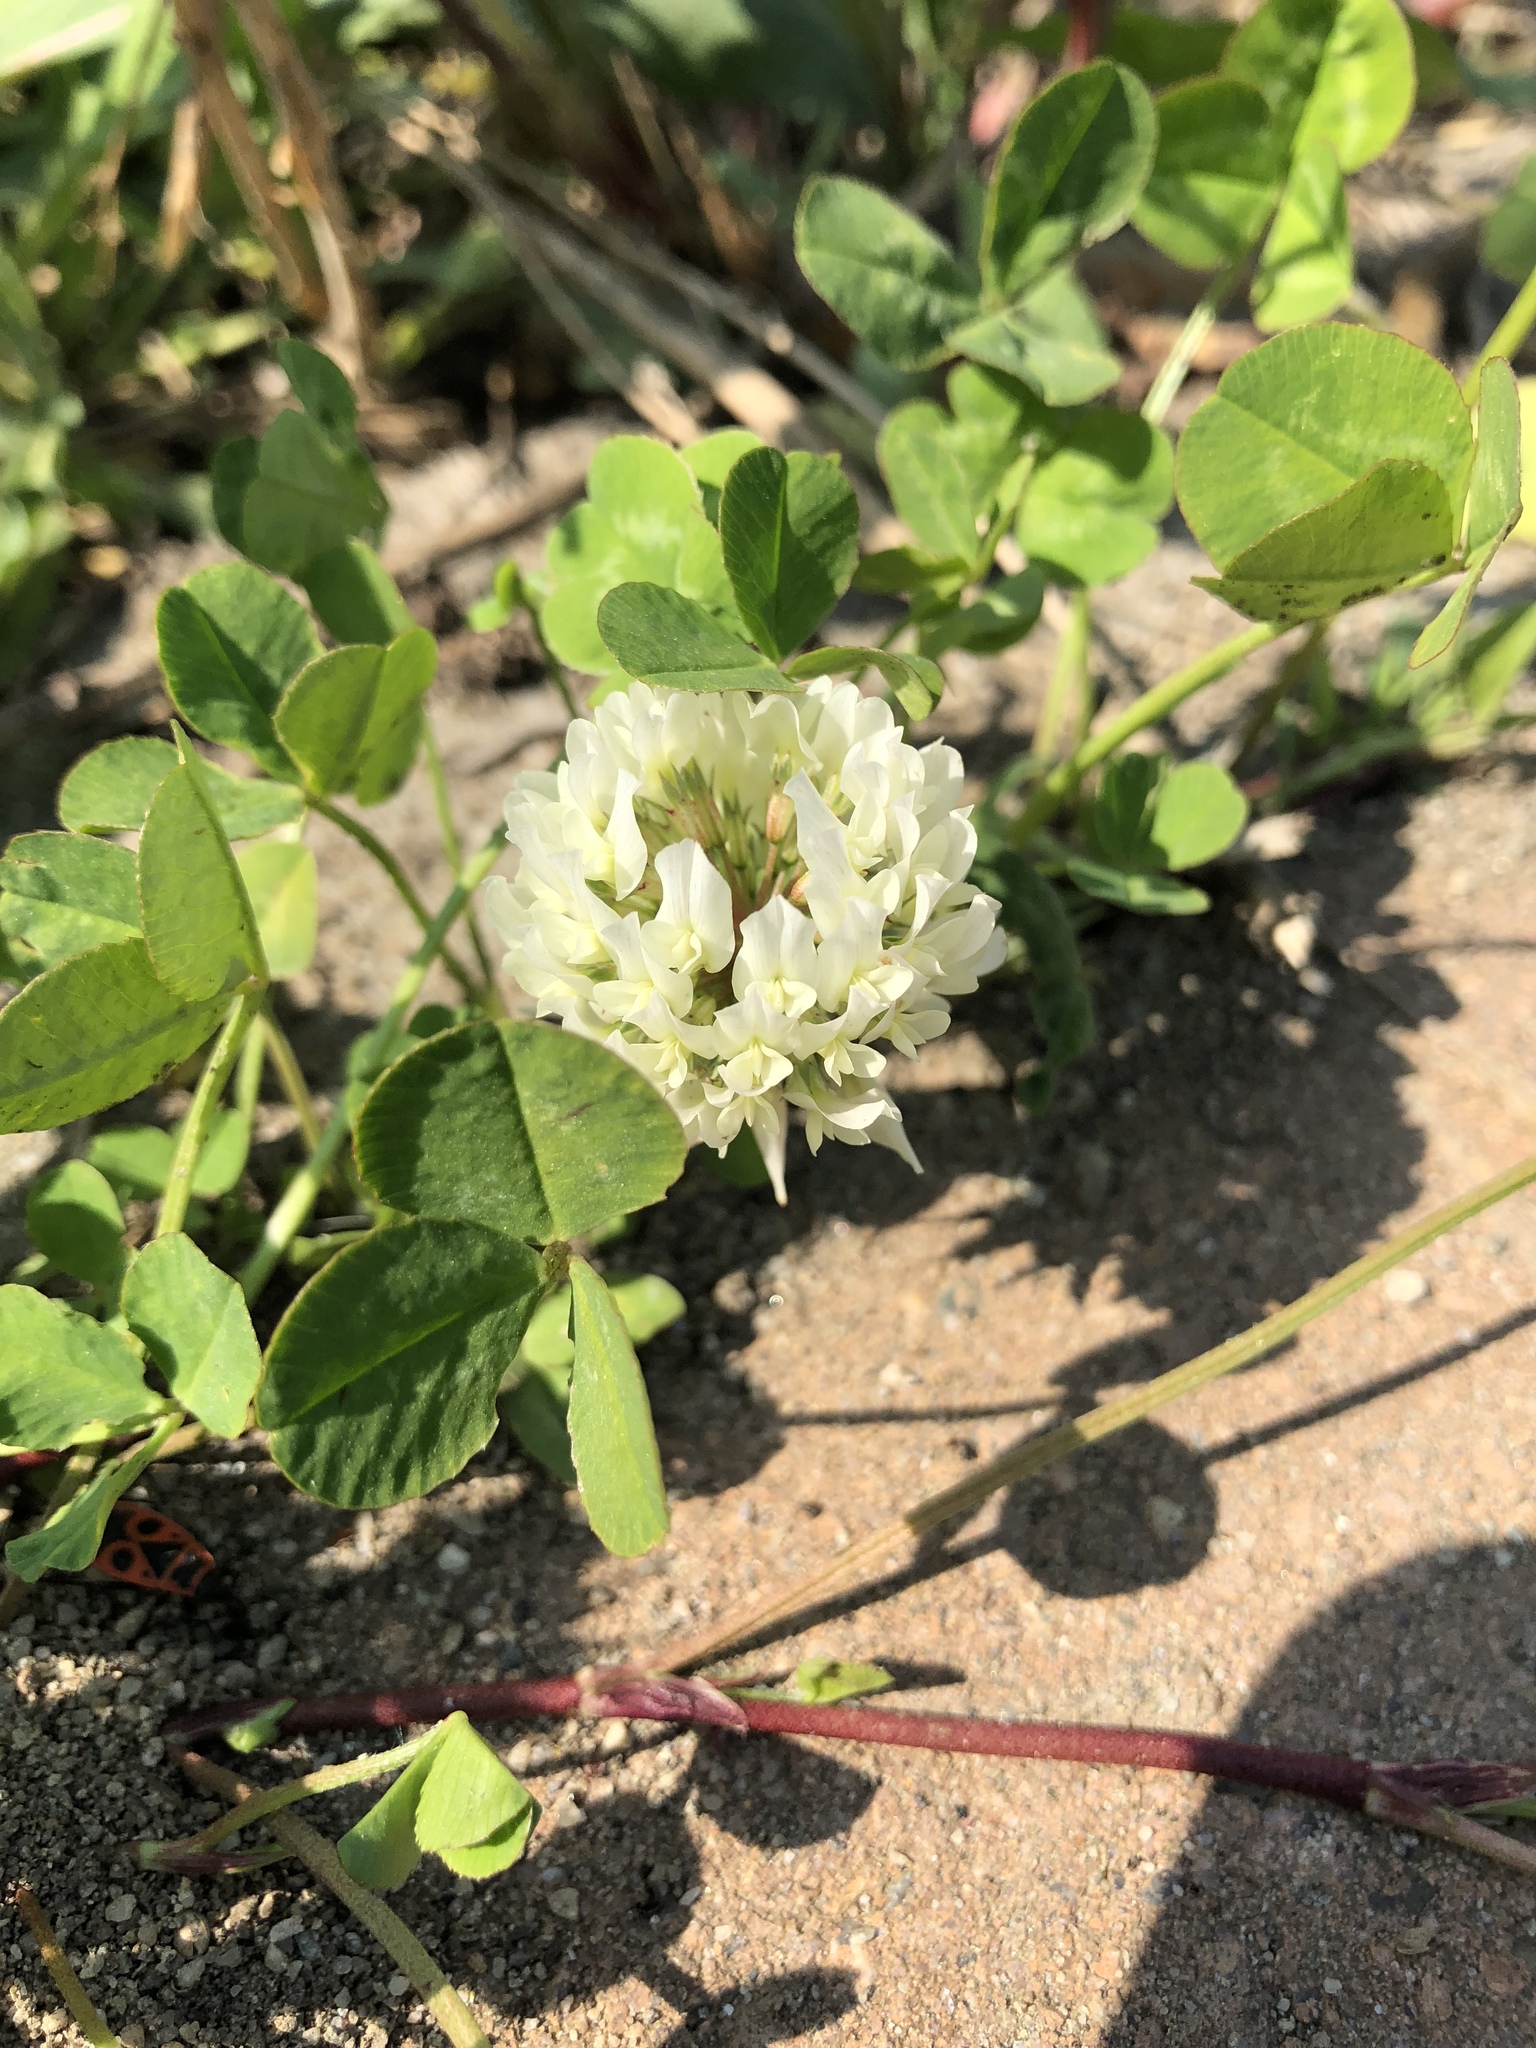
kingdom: Plantae
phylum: Tracheophyta
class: Magnoliopsida
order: Fabales
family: Fabaceae
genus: Trifolium
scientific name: Trifolium repens
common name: White clover
